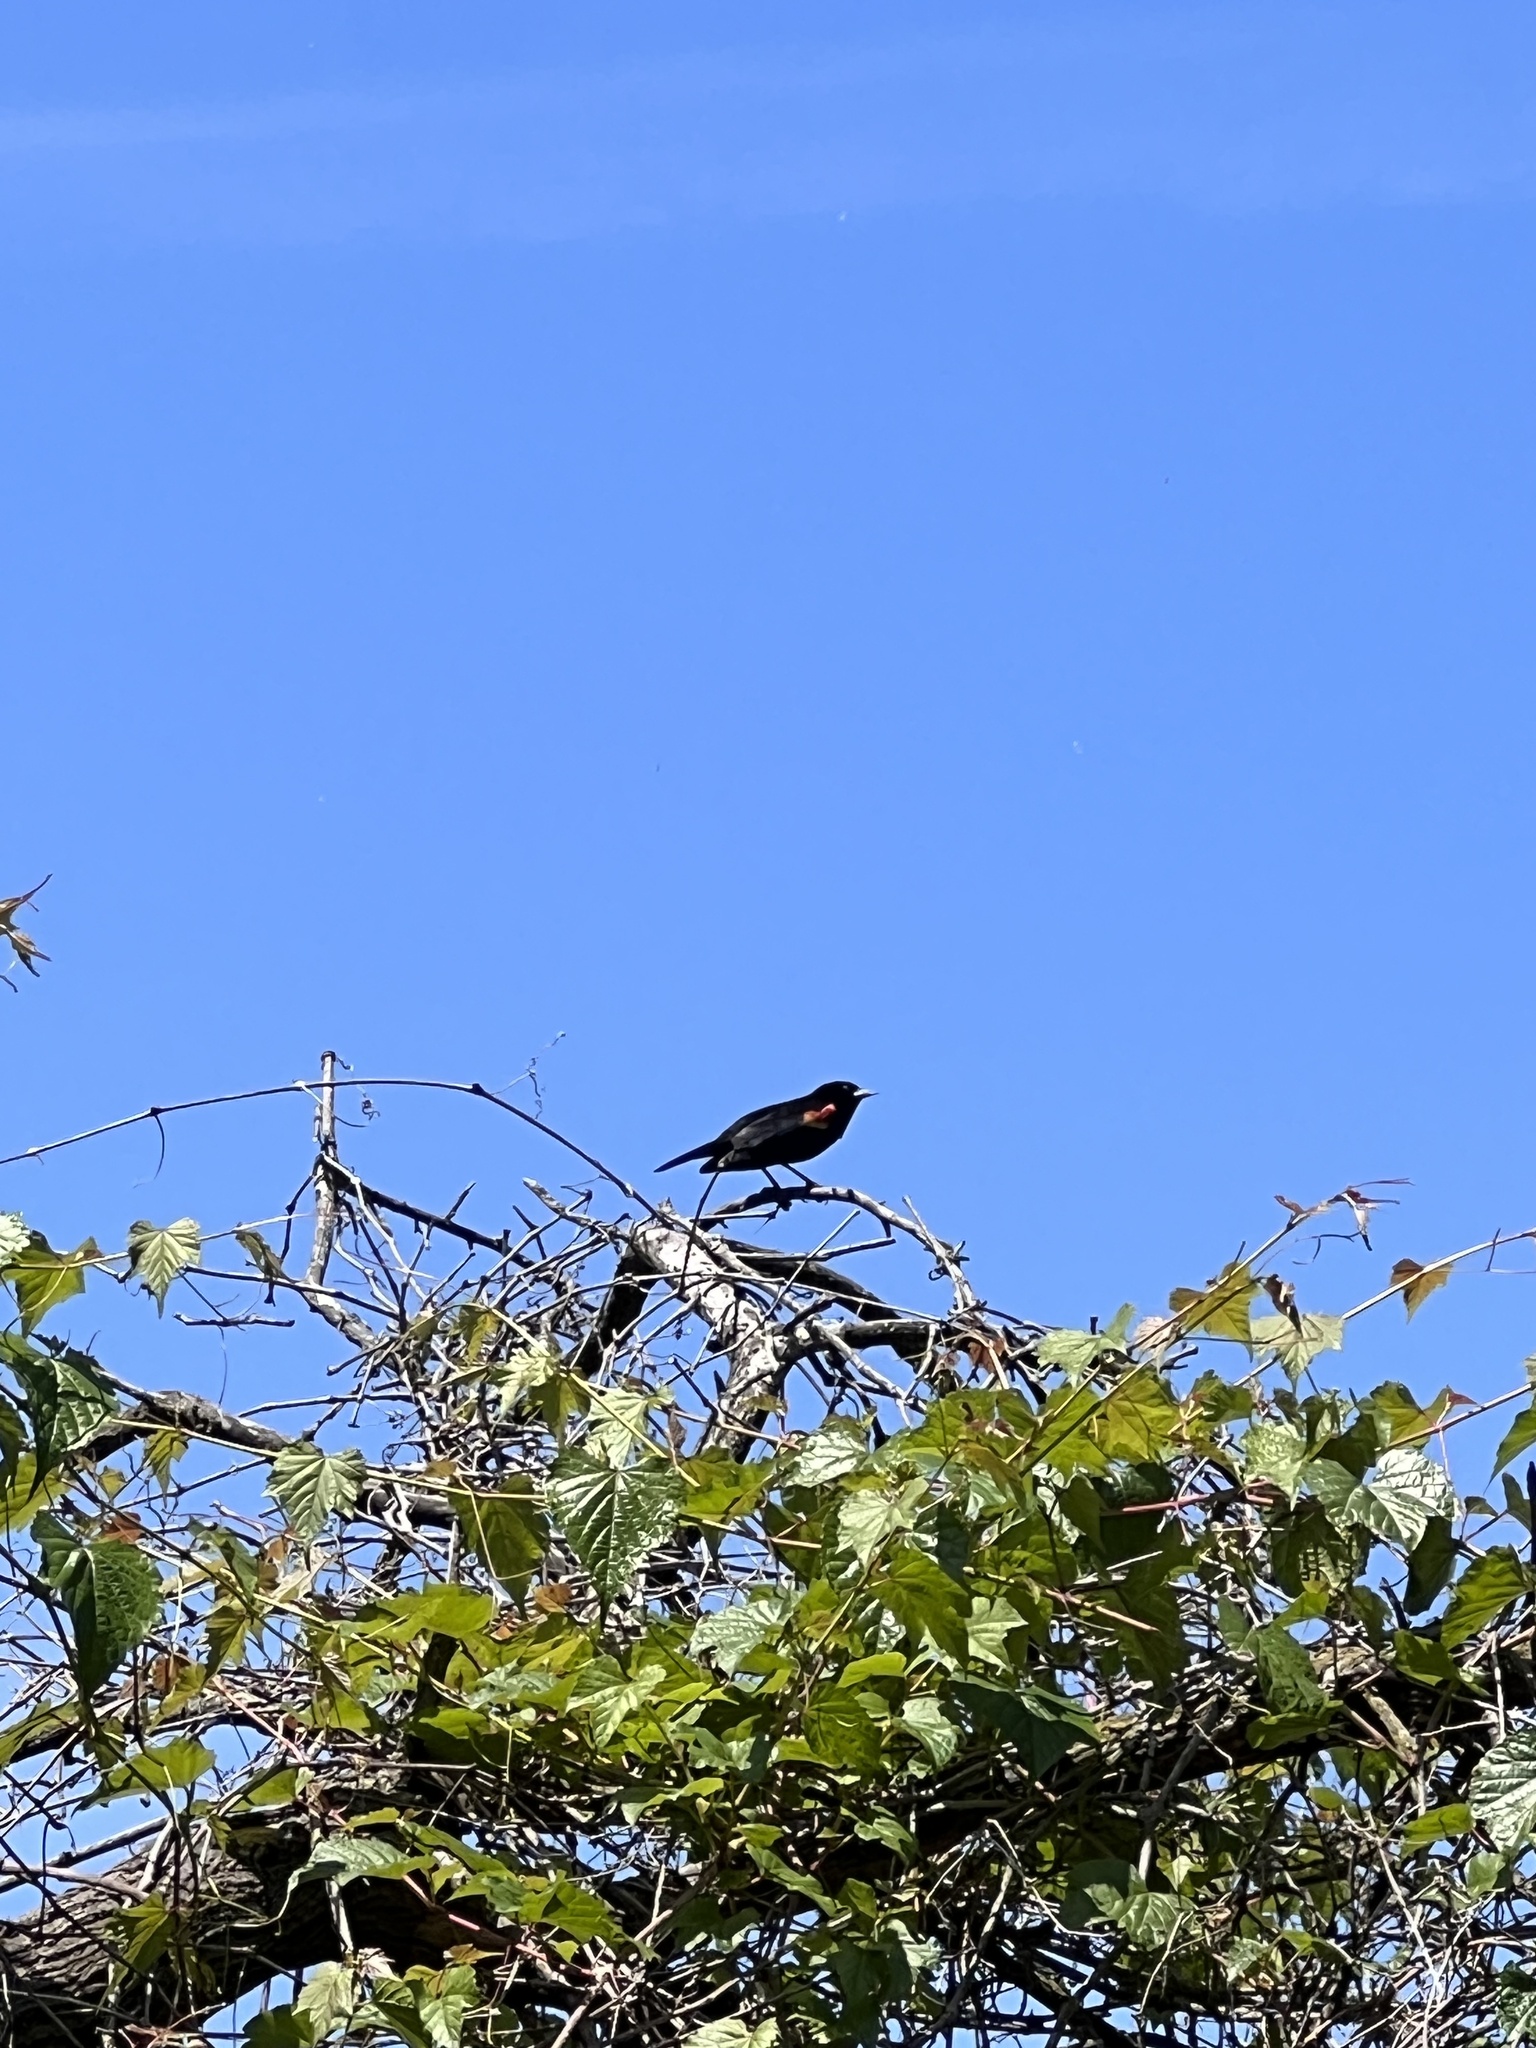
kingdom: Animalia
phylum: Chordata
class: Aves
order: Passeriformes
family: Icteridae
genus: Agelaius
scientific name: Agelaius phoeniceus
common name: Red-winged blackbird
